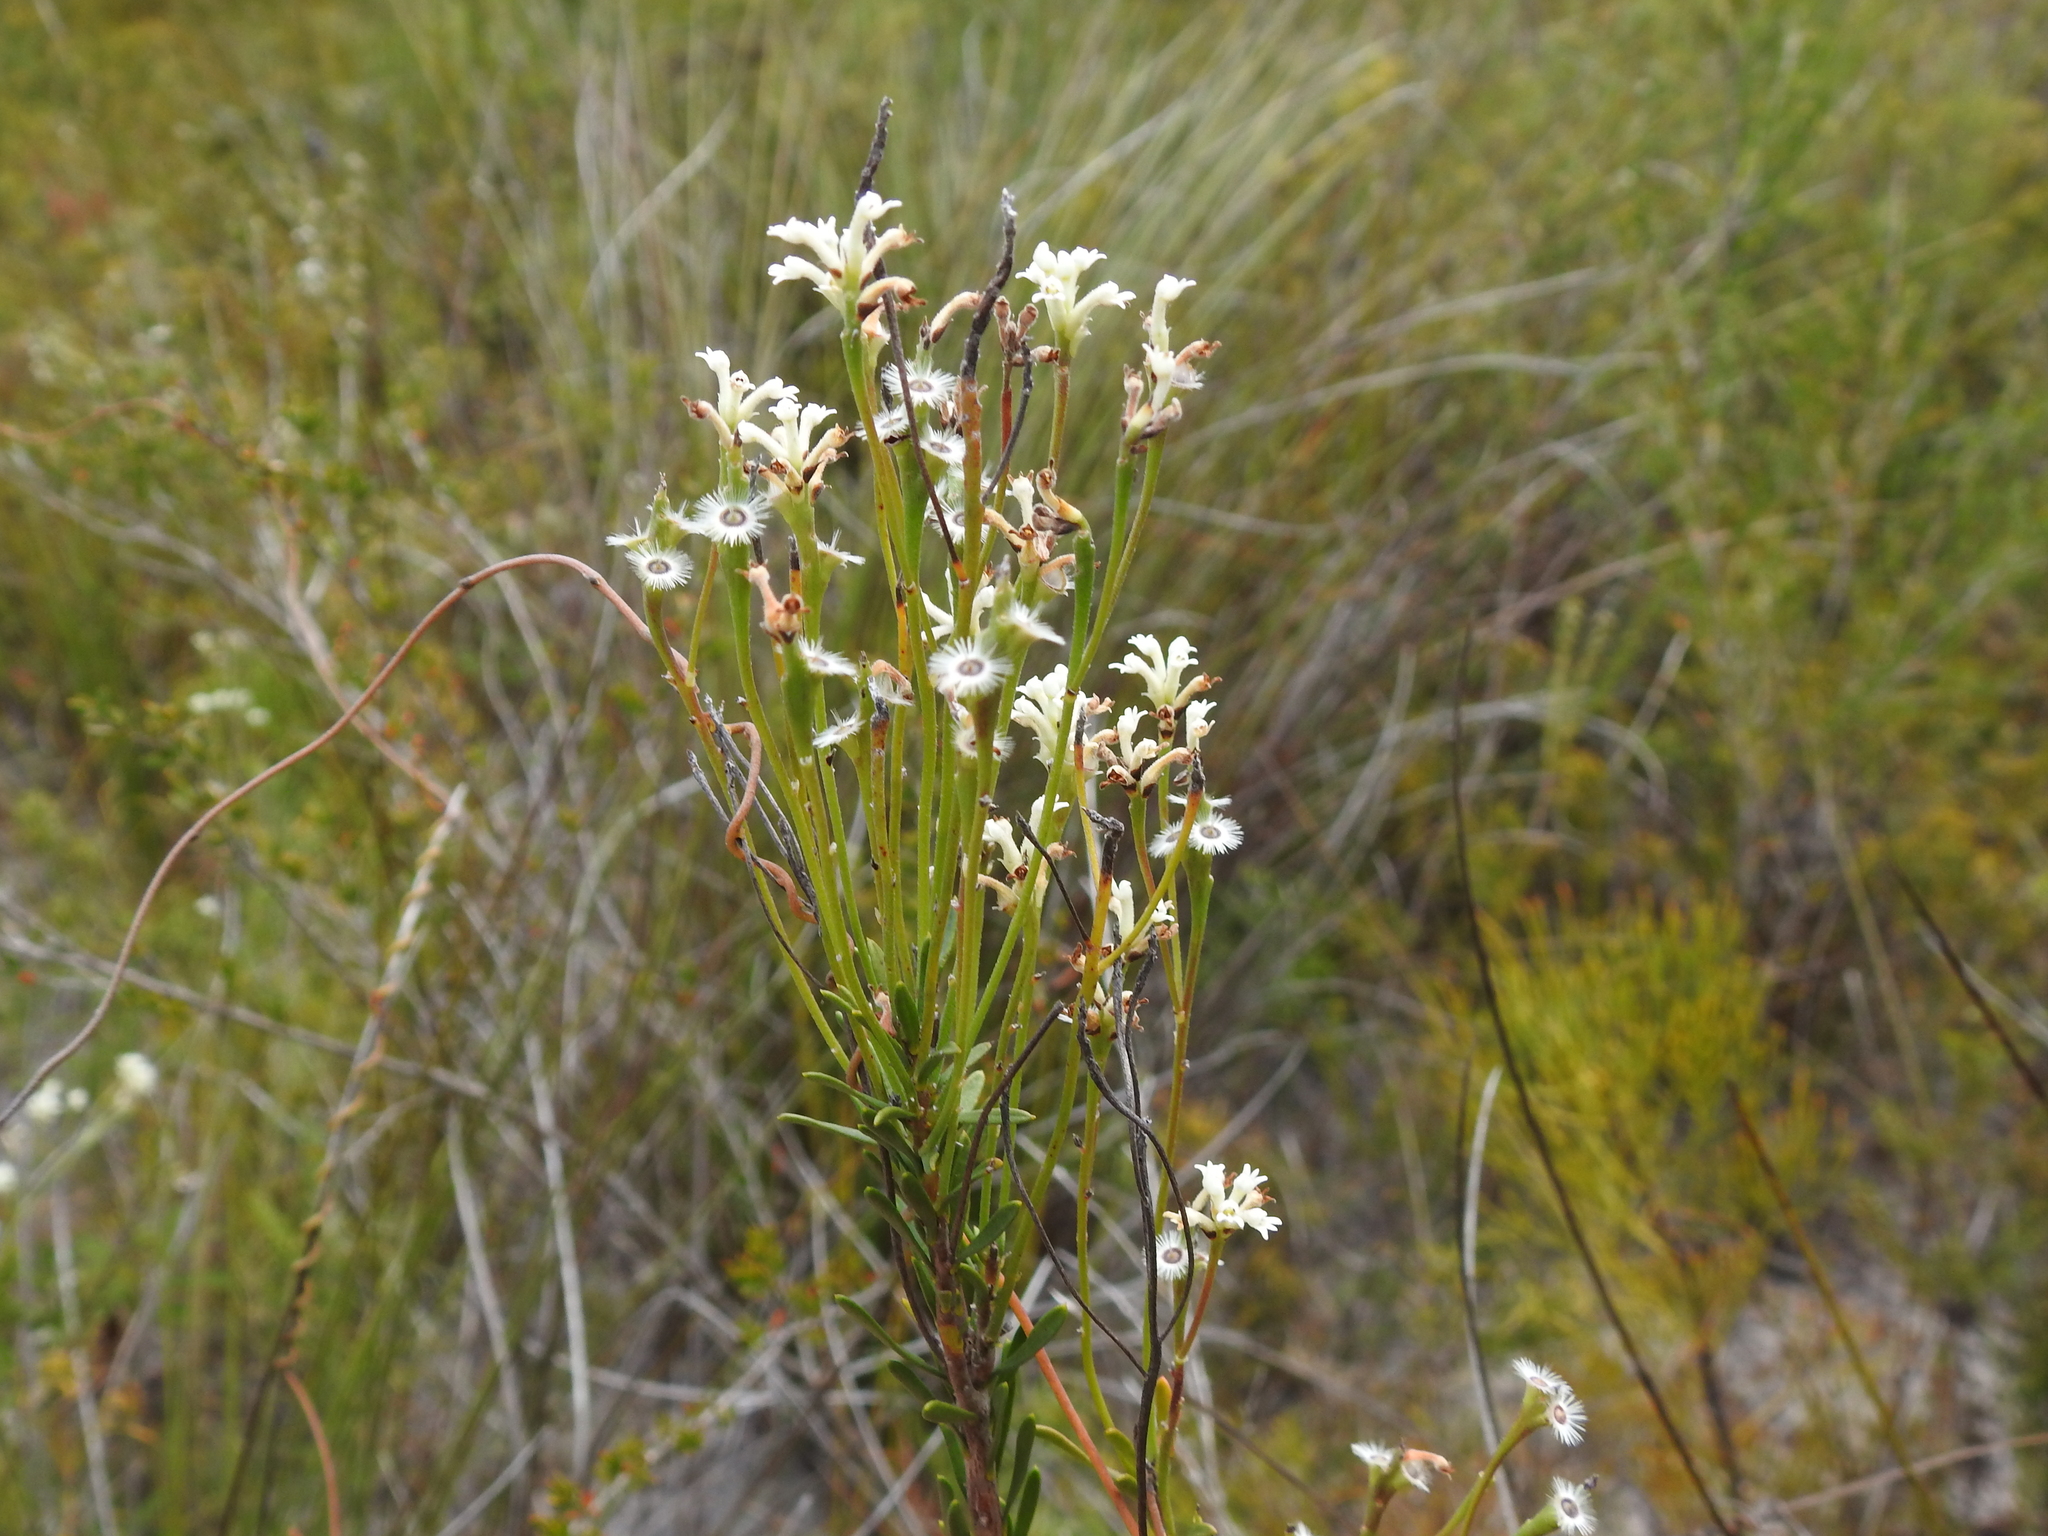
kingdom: Plantae
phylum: Tracheophyta
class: Magnoliopsida
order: Proteales
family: Proteaceae
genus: Conospermum
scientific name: Conospermum taxifolium
